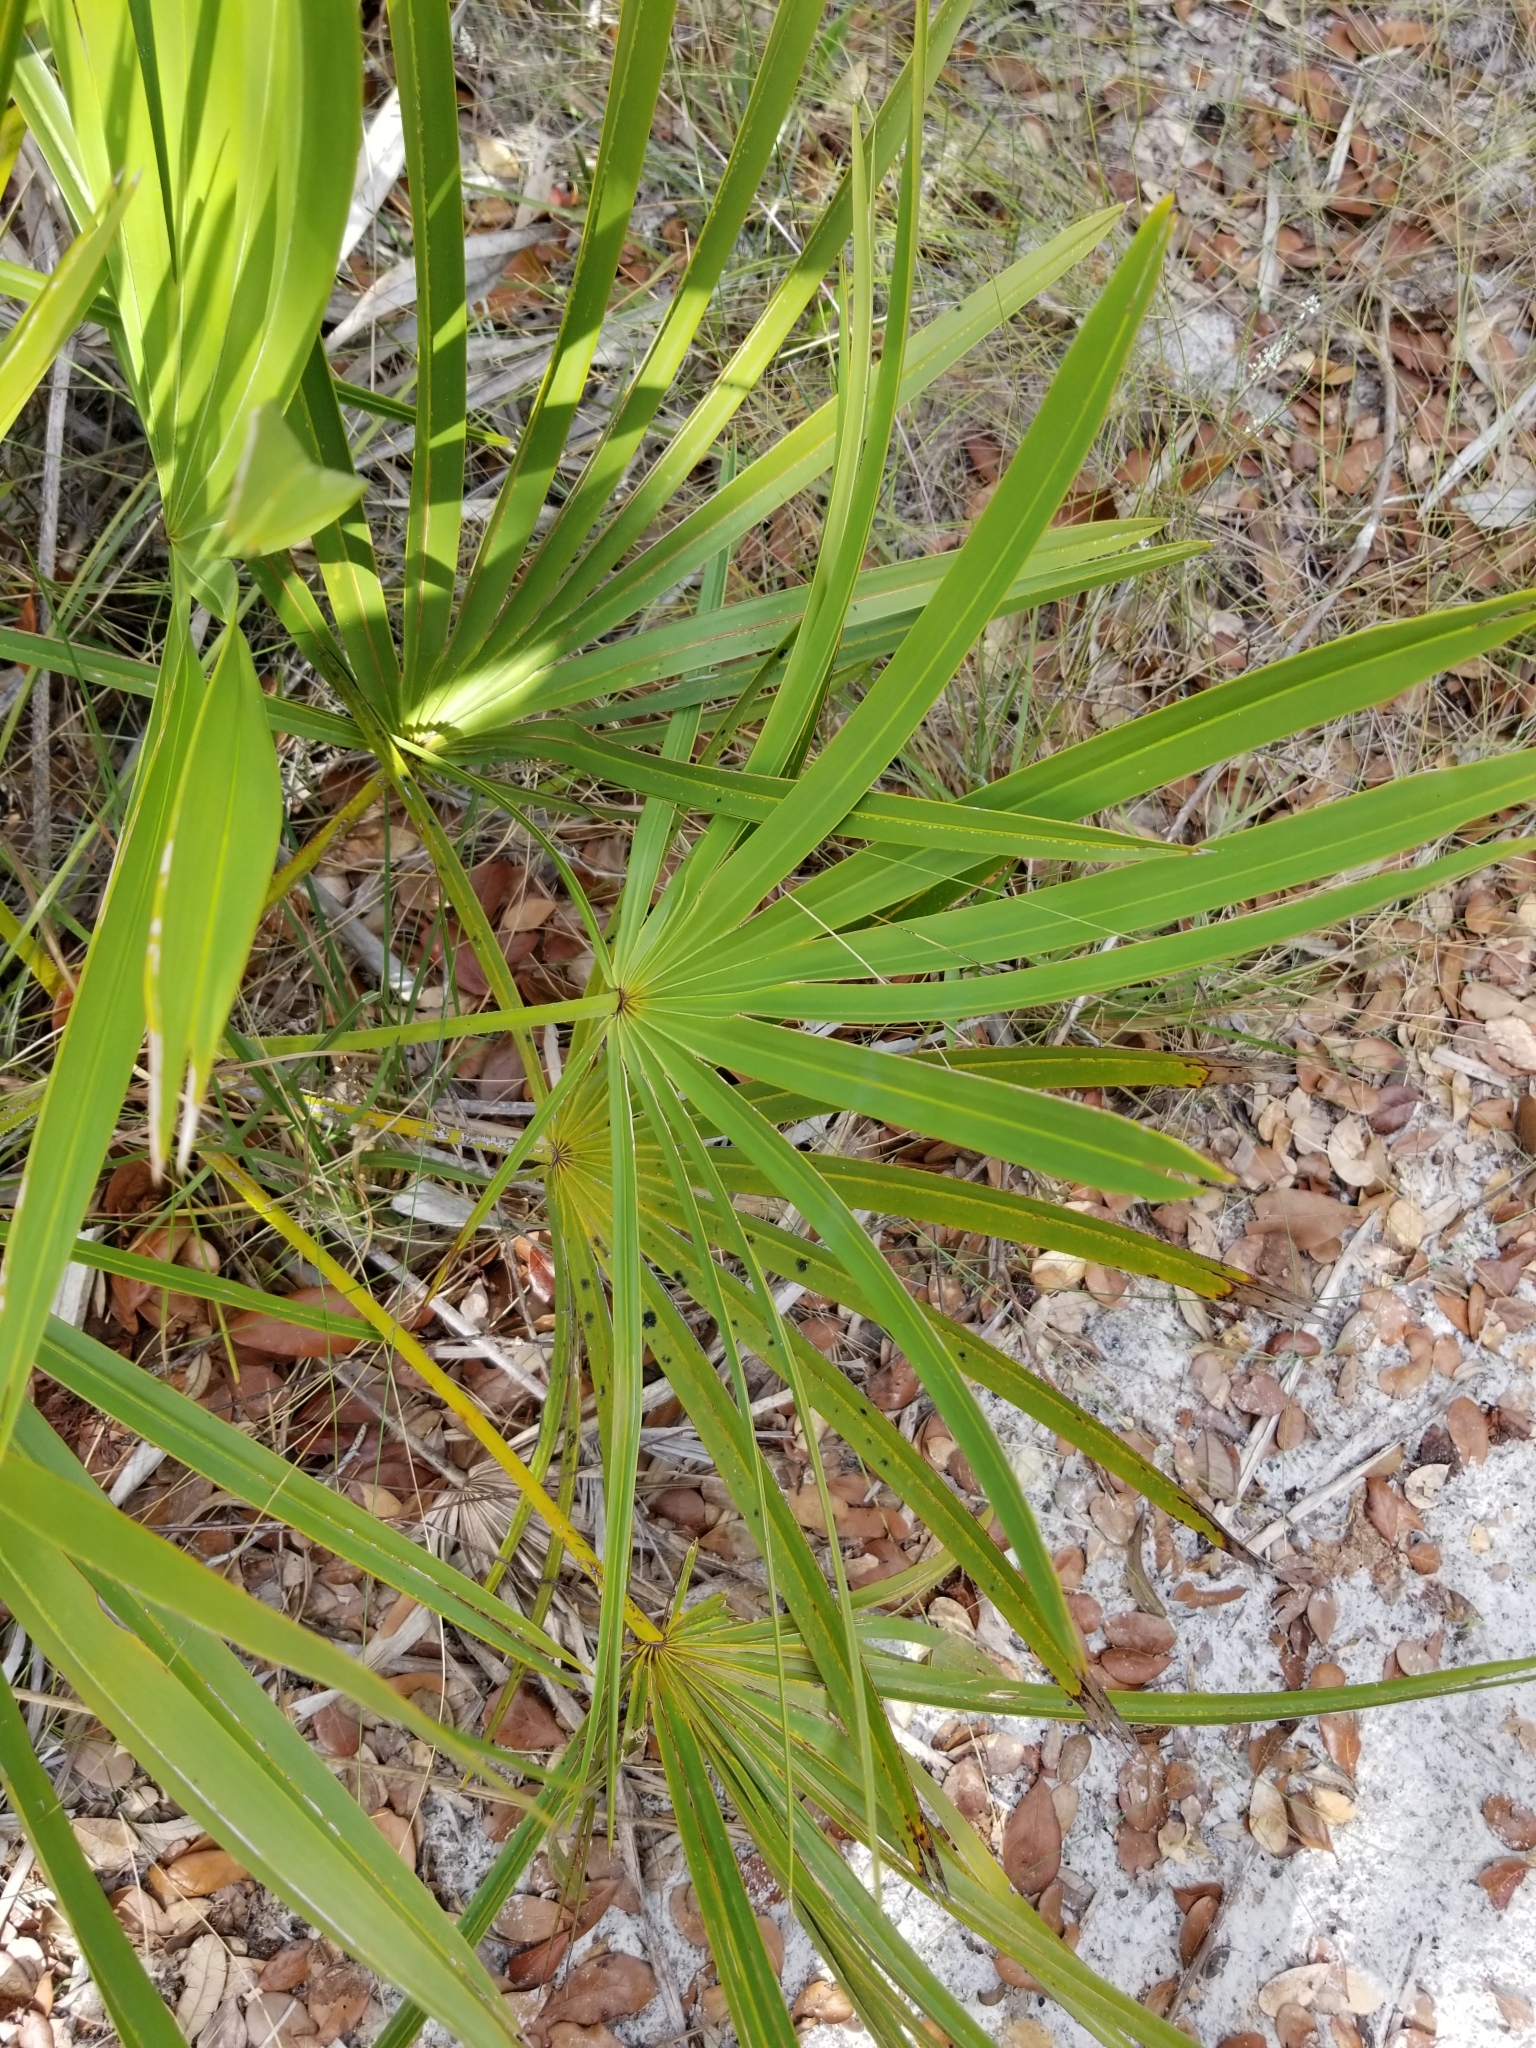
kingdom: Plantae
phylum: Tracheophyta
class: Liliopsida
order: Arecales
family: Arecaceae
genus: Serenoa
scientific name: Serenoa repens
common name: Saw-palmetto
